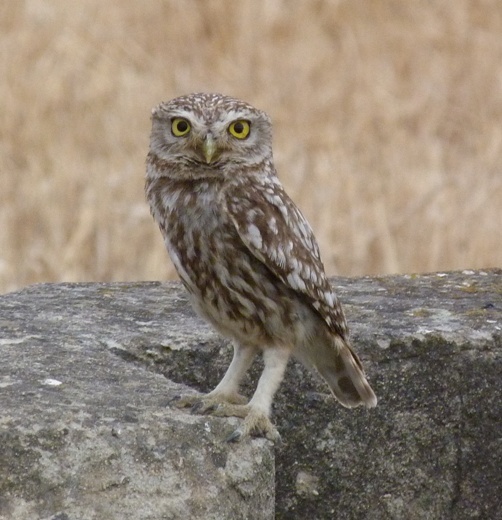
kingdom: Animalia
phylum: Chordata
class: Aves
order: Strigiformes
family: Strigidae
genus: Athene
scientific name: Athene noctua
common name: Little owl
